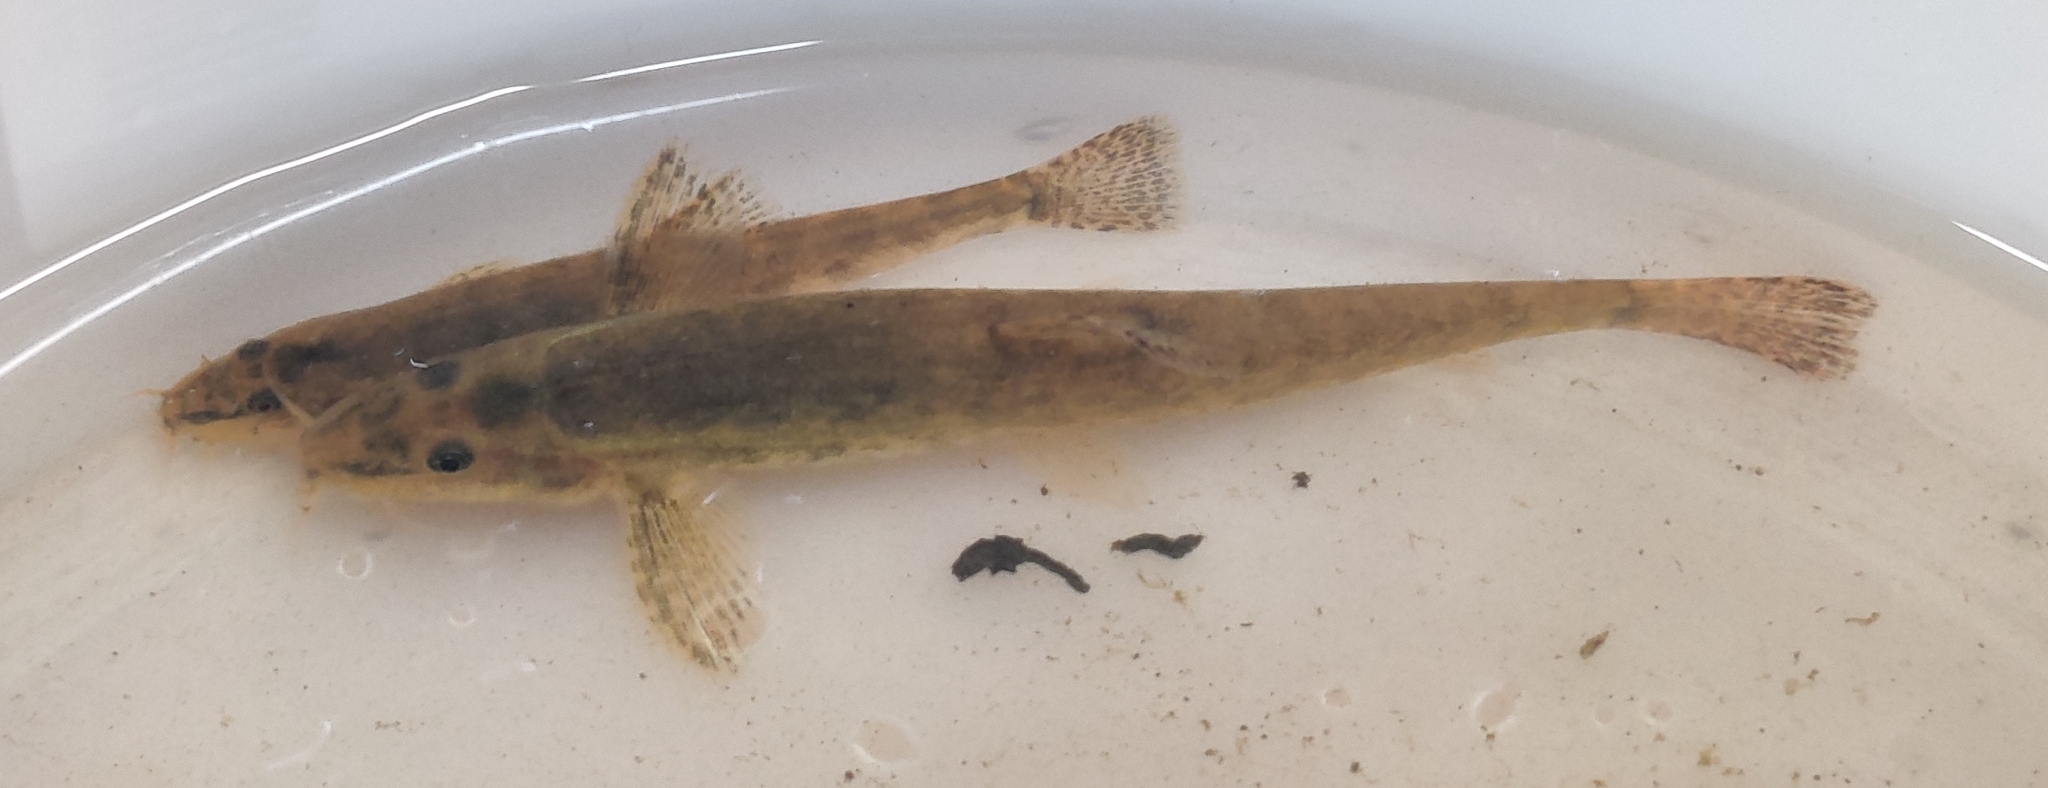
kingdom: Animalia
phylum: Chordata
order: Cypriniformes
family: Nemacheilidae
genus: Barbatula
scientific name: Barbatula barbatula
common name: Stone loach
